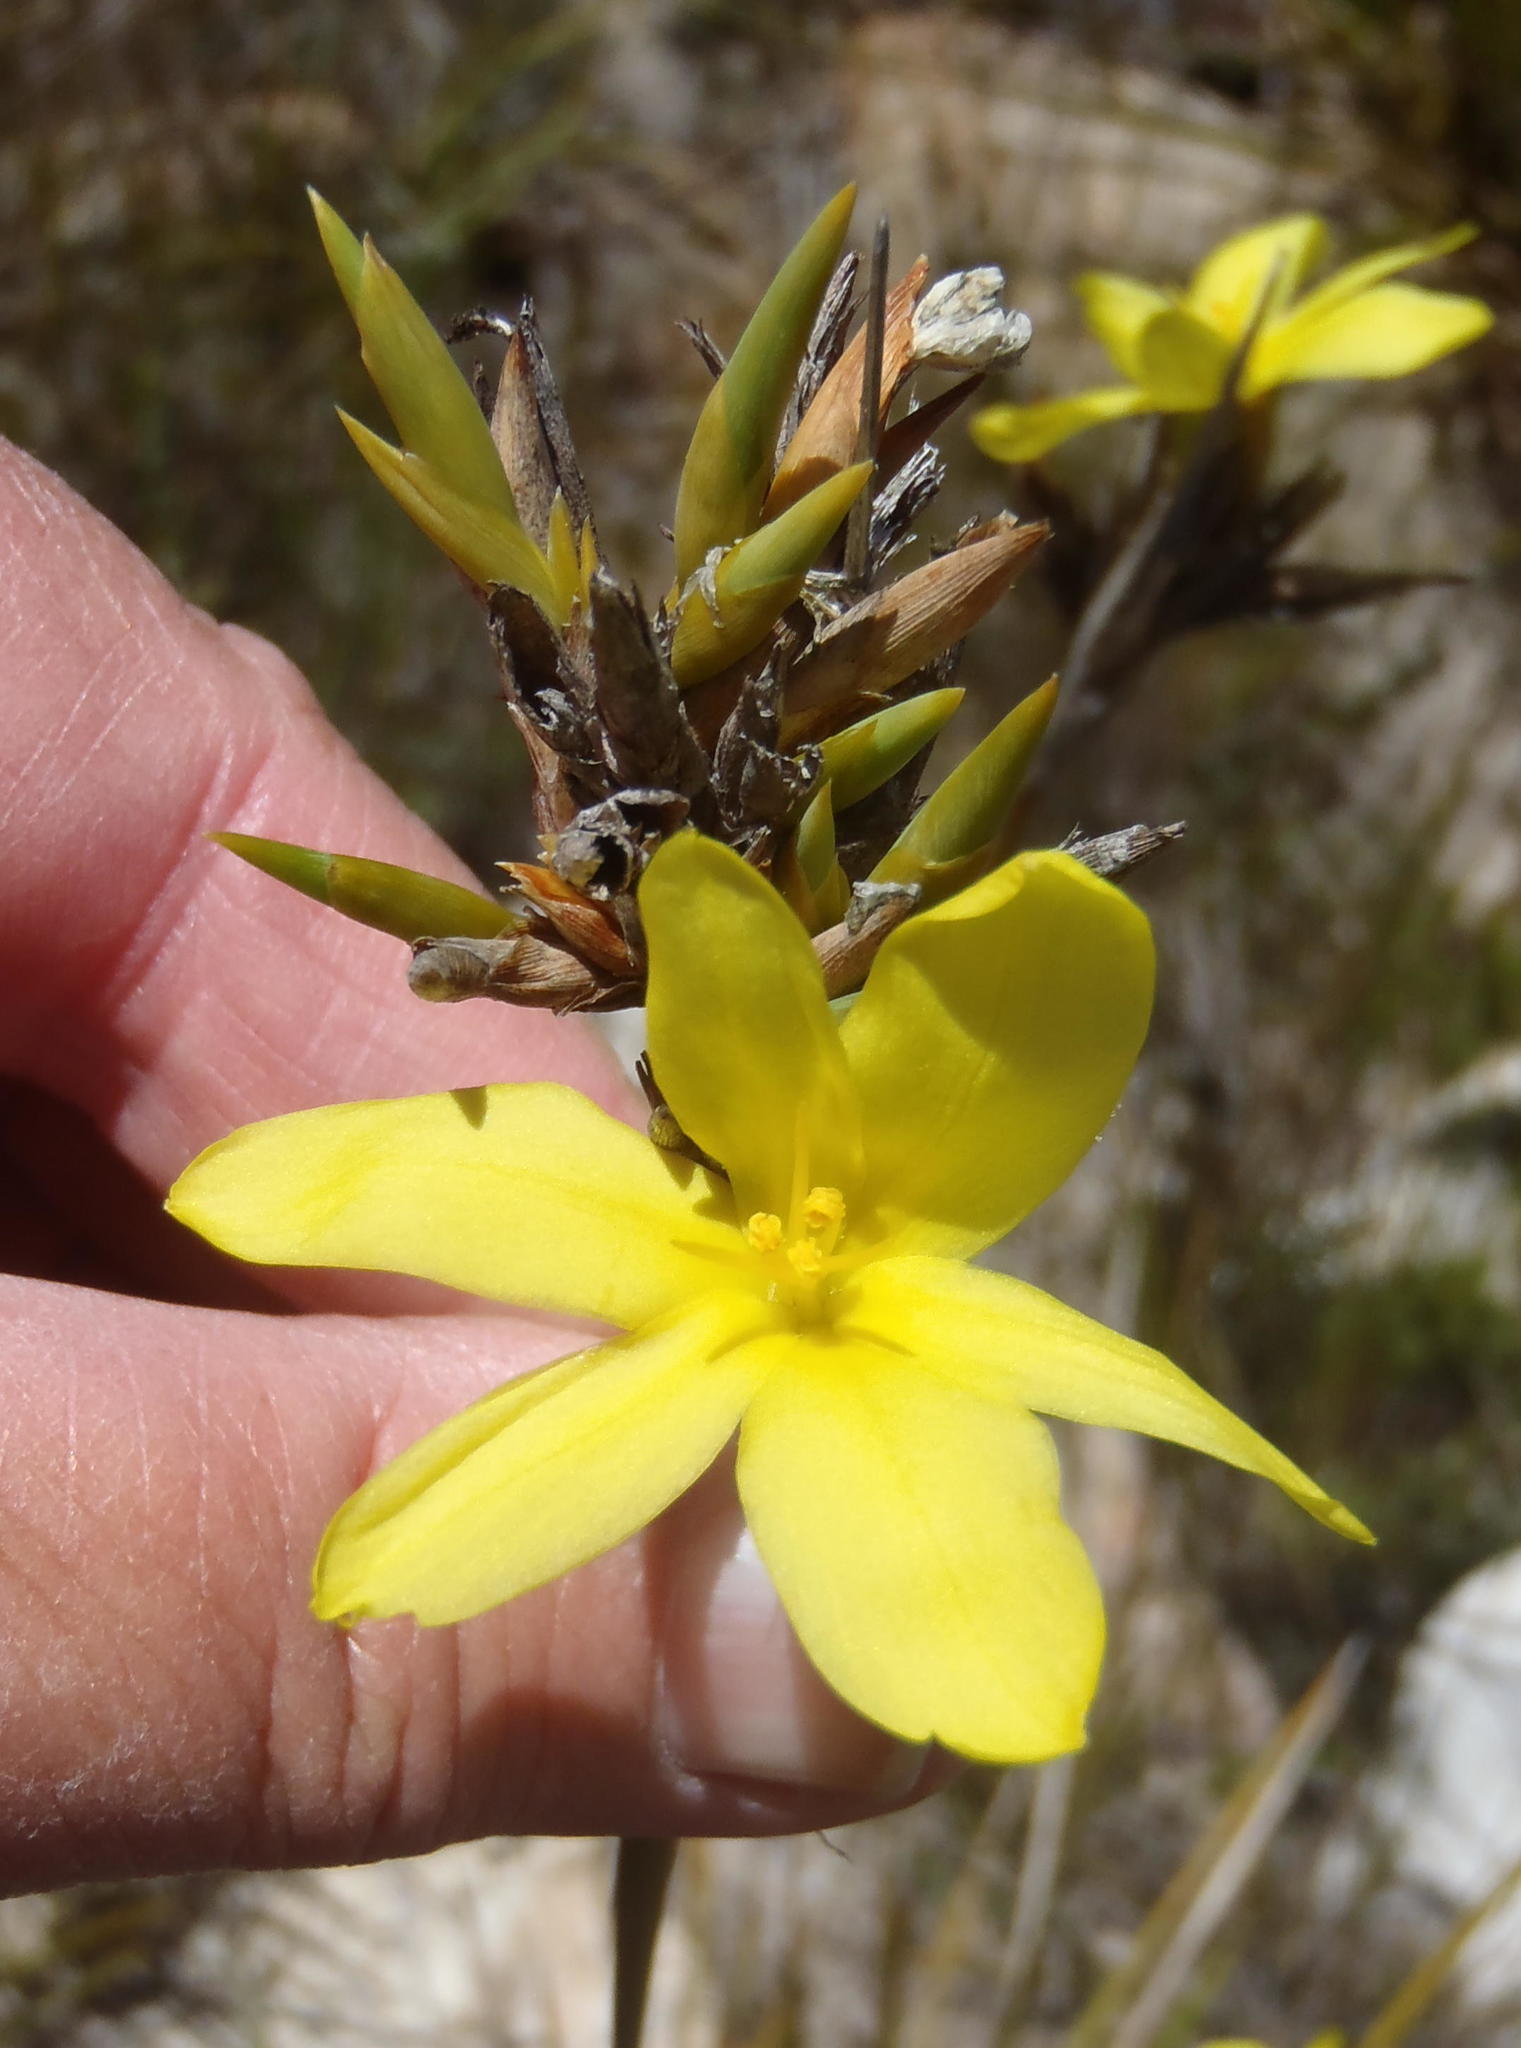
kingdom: Plantae
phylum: Tracheophyta
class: Liliopsida
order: Asparagales
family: Iridaceae
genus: Bobartia
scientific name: Bobartia macrospatha
